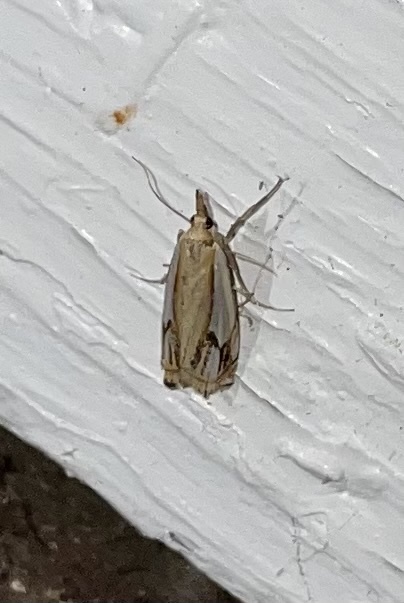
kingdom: Animalia
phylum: Arthropoda
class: Insecta
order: Lepidoptera
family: Crambidae
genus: Crambus
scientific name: Crambus agitatellus
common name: Double-banded grass-veneer
